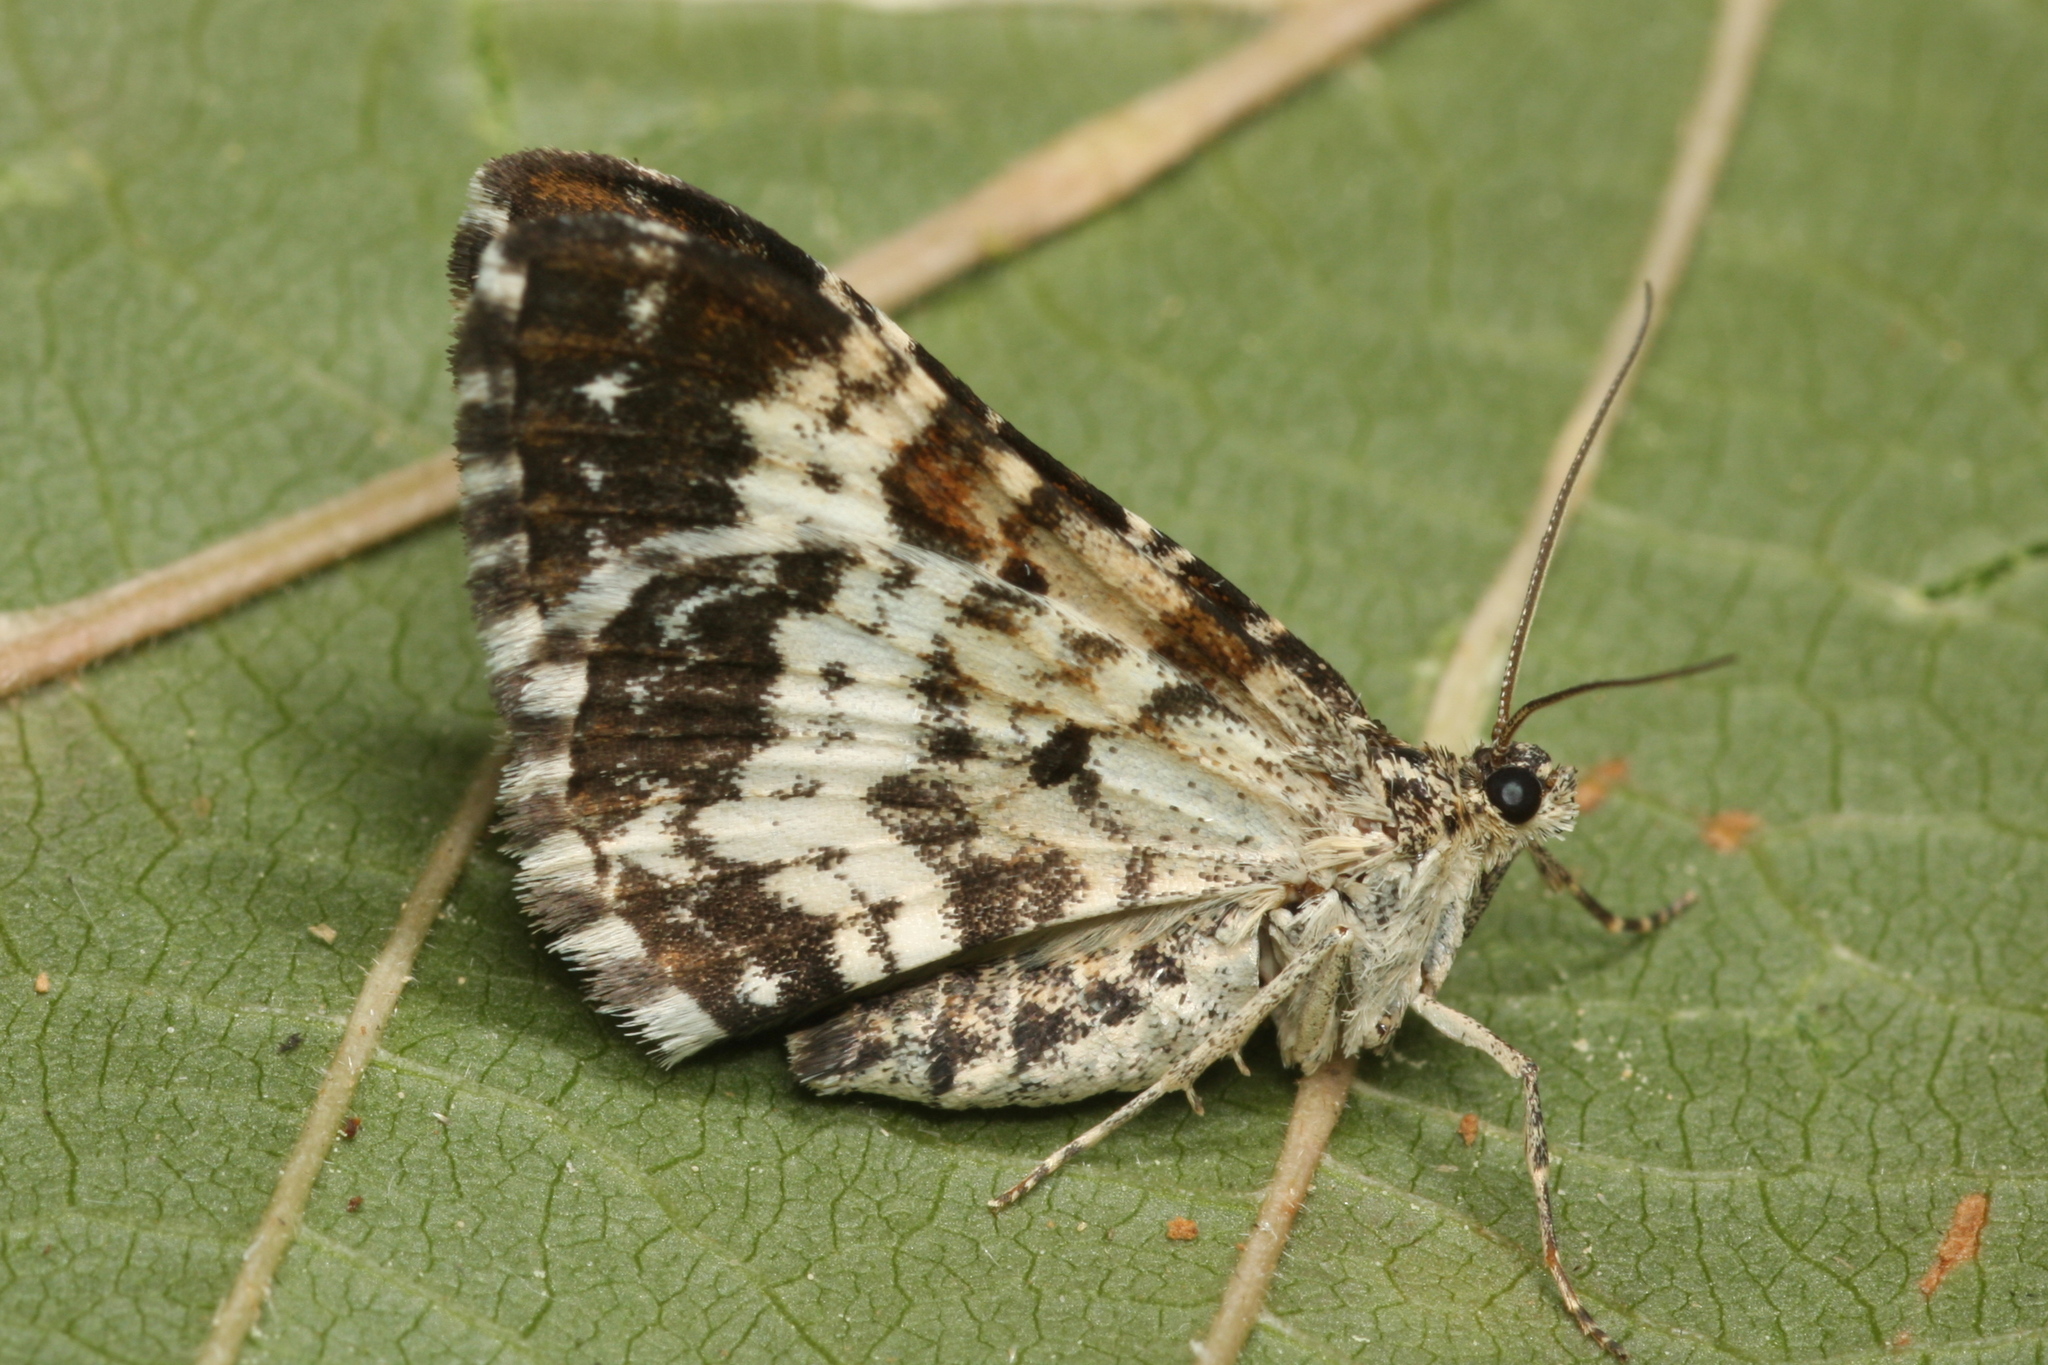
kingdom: Animalia
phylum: Arthropoda
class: Insecta
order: Lepidoptera
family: Geometridae
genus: Epirrhoe
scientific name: Epirrhoe tristata
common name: Small argent & sable
